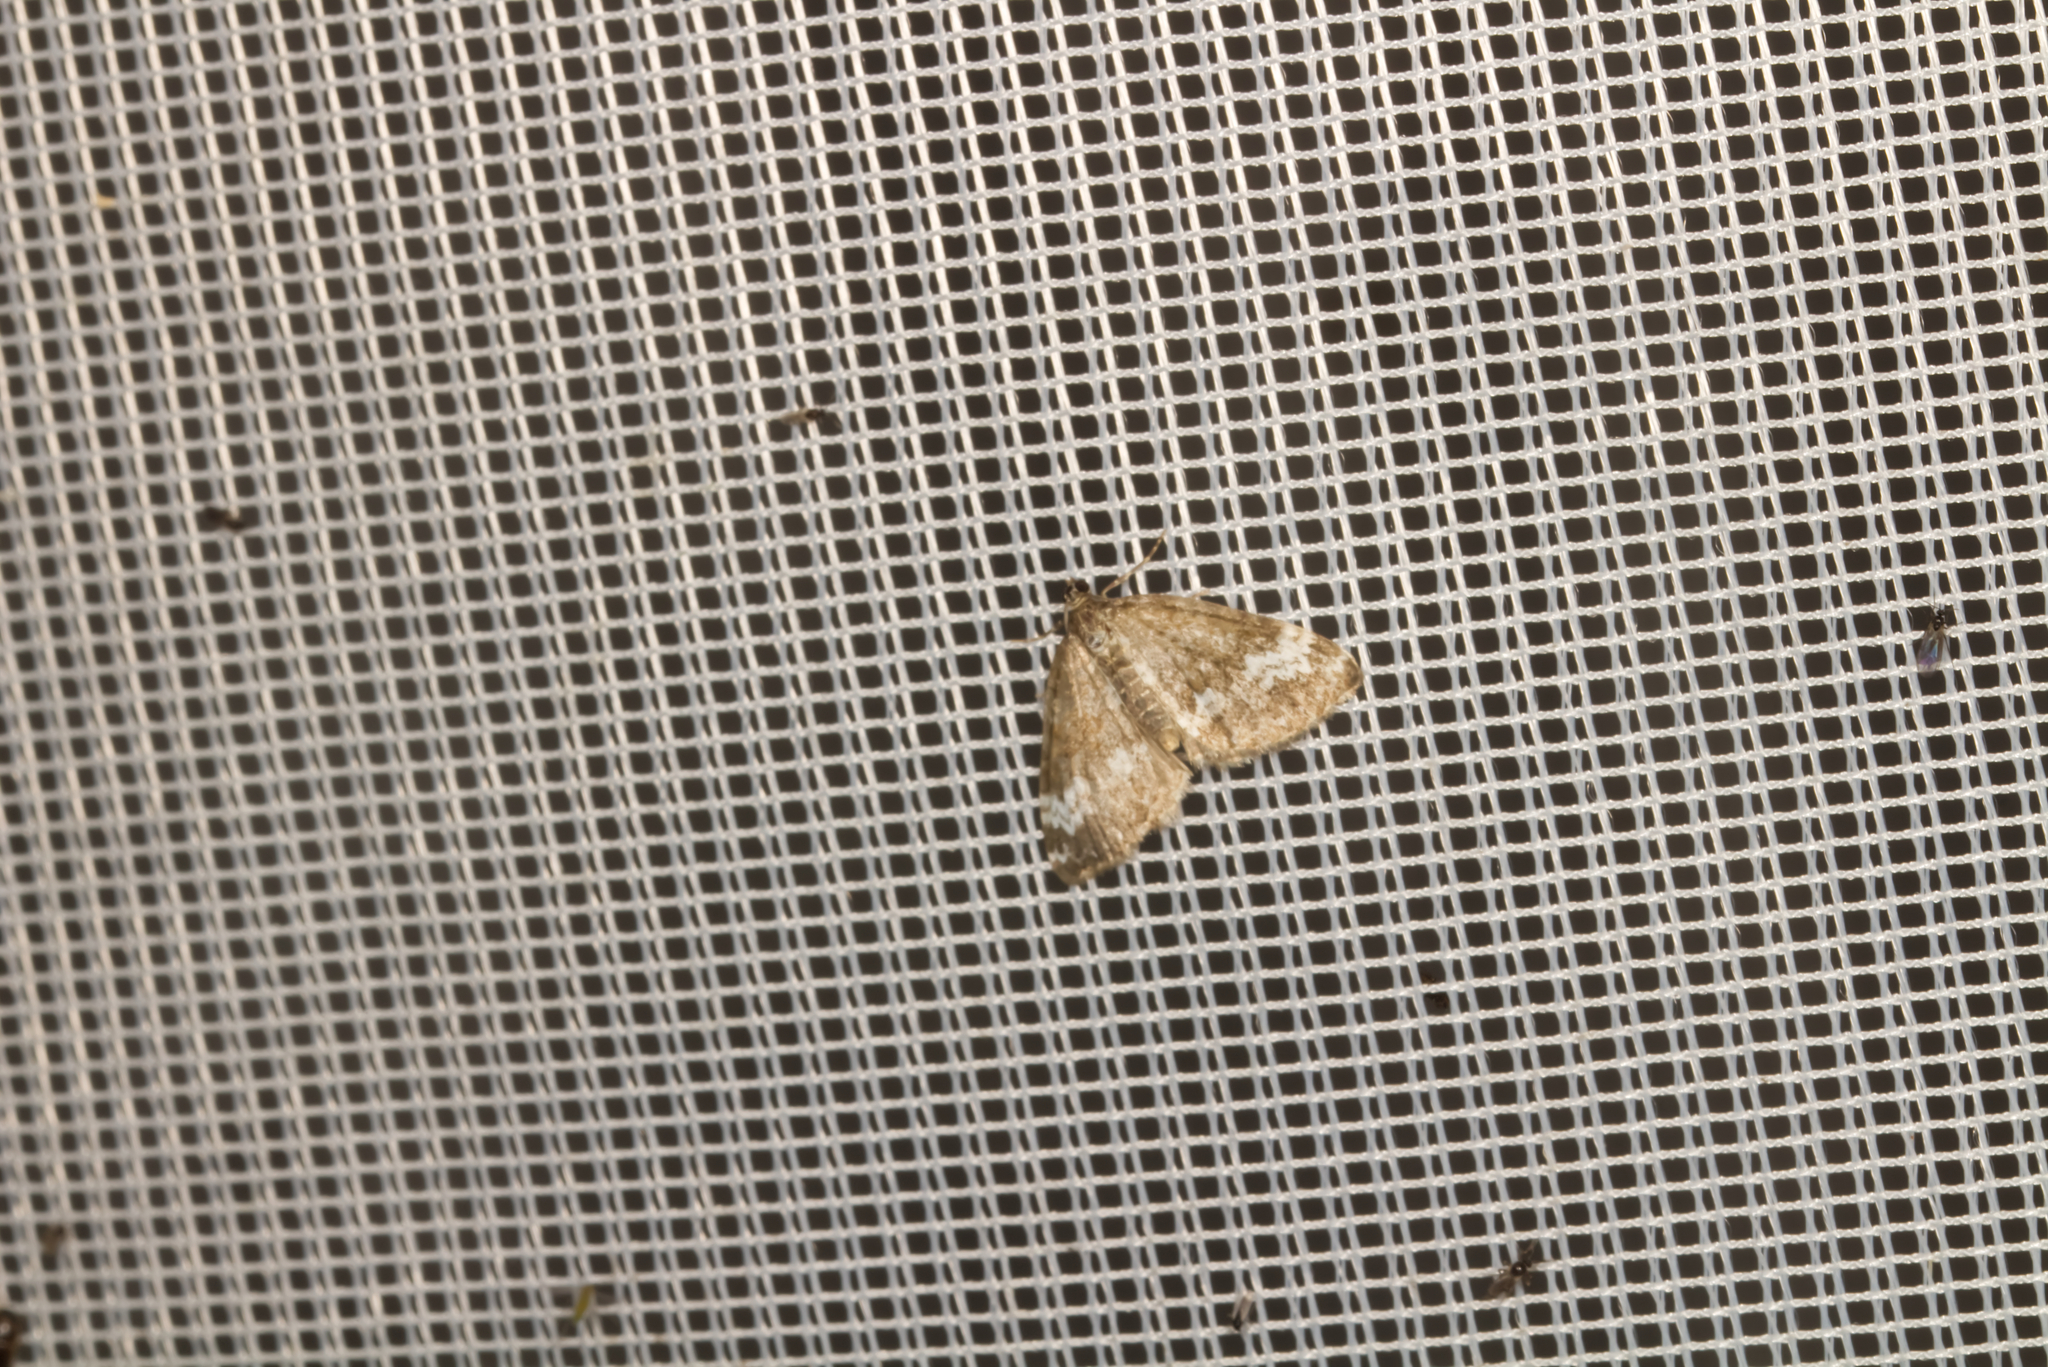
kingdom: Animalia
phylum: Arthropoda
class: Insecta
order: Lepidoptera
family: Geometridae
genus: Perizoma
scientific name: Perizoma alchemillata
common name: Small rivulet
